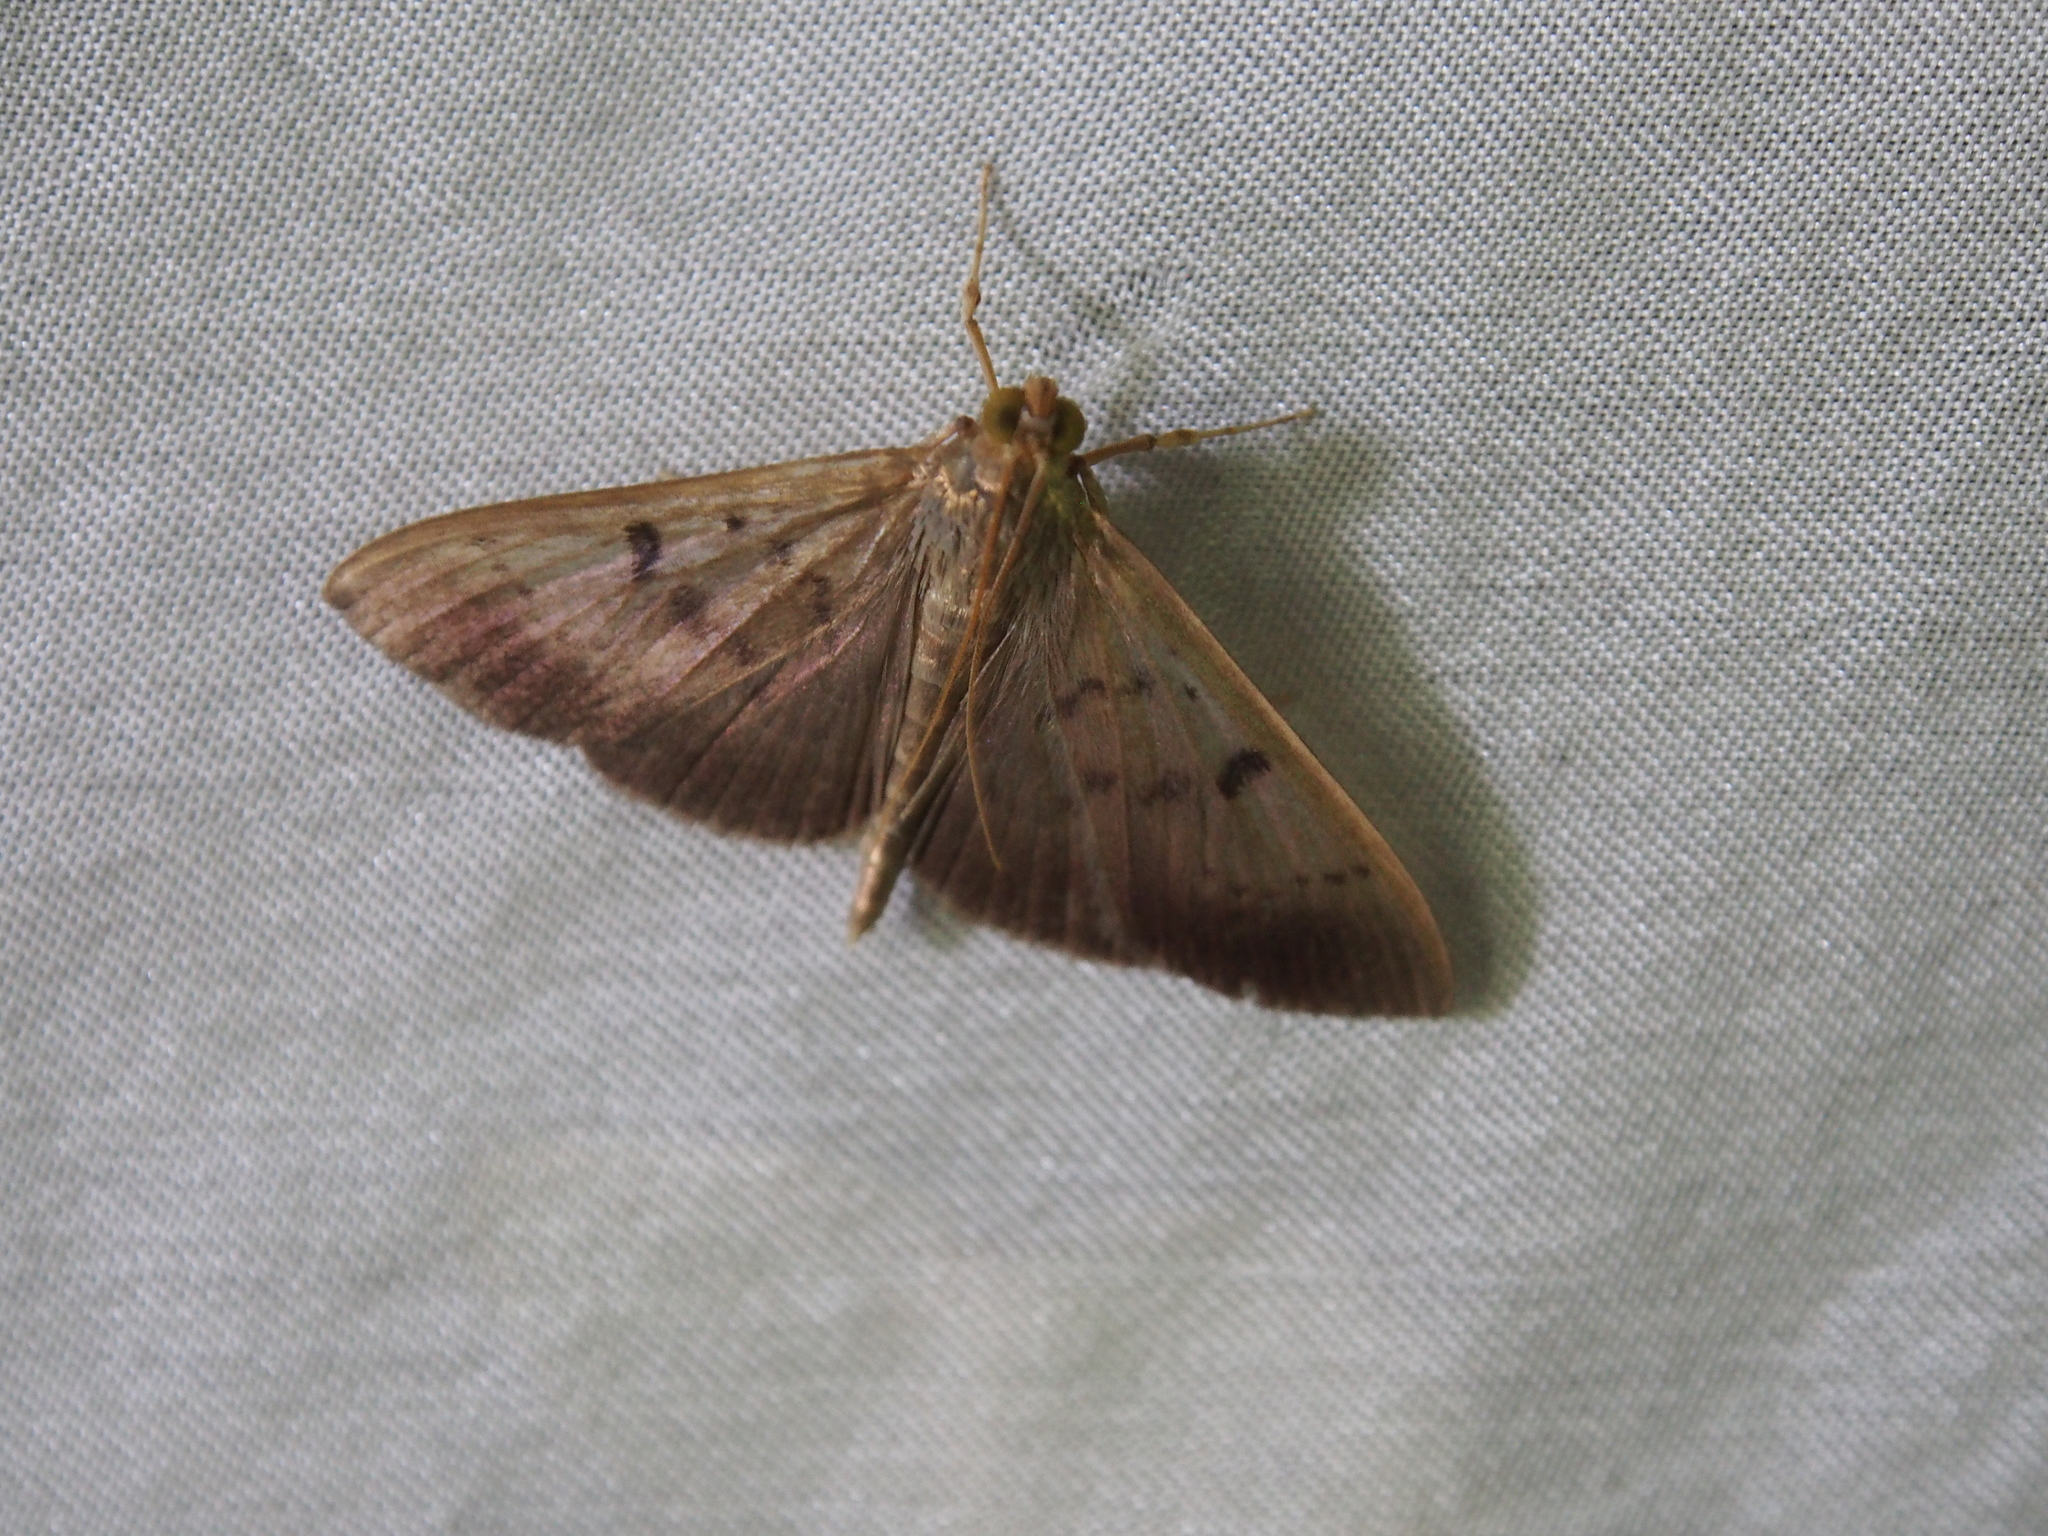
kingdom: Animalia
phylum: Arthropoda
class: Insecta
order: Lepidoptera
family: Crambidae
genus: Ceratocilia
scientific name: Ceratocilia sixolalis
